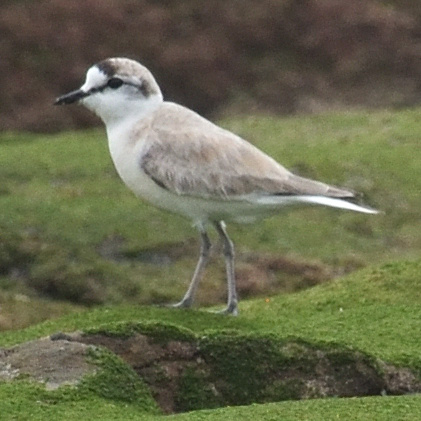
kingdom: Animalia
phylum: Chordata
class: Aves
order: Charadriiformes
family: Charadriidae
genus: Anarhynchus
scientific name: Anarhynchus
